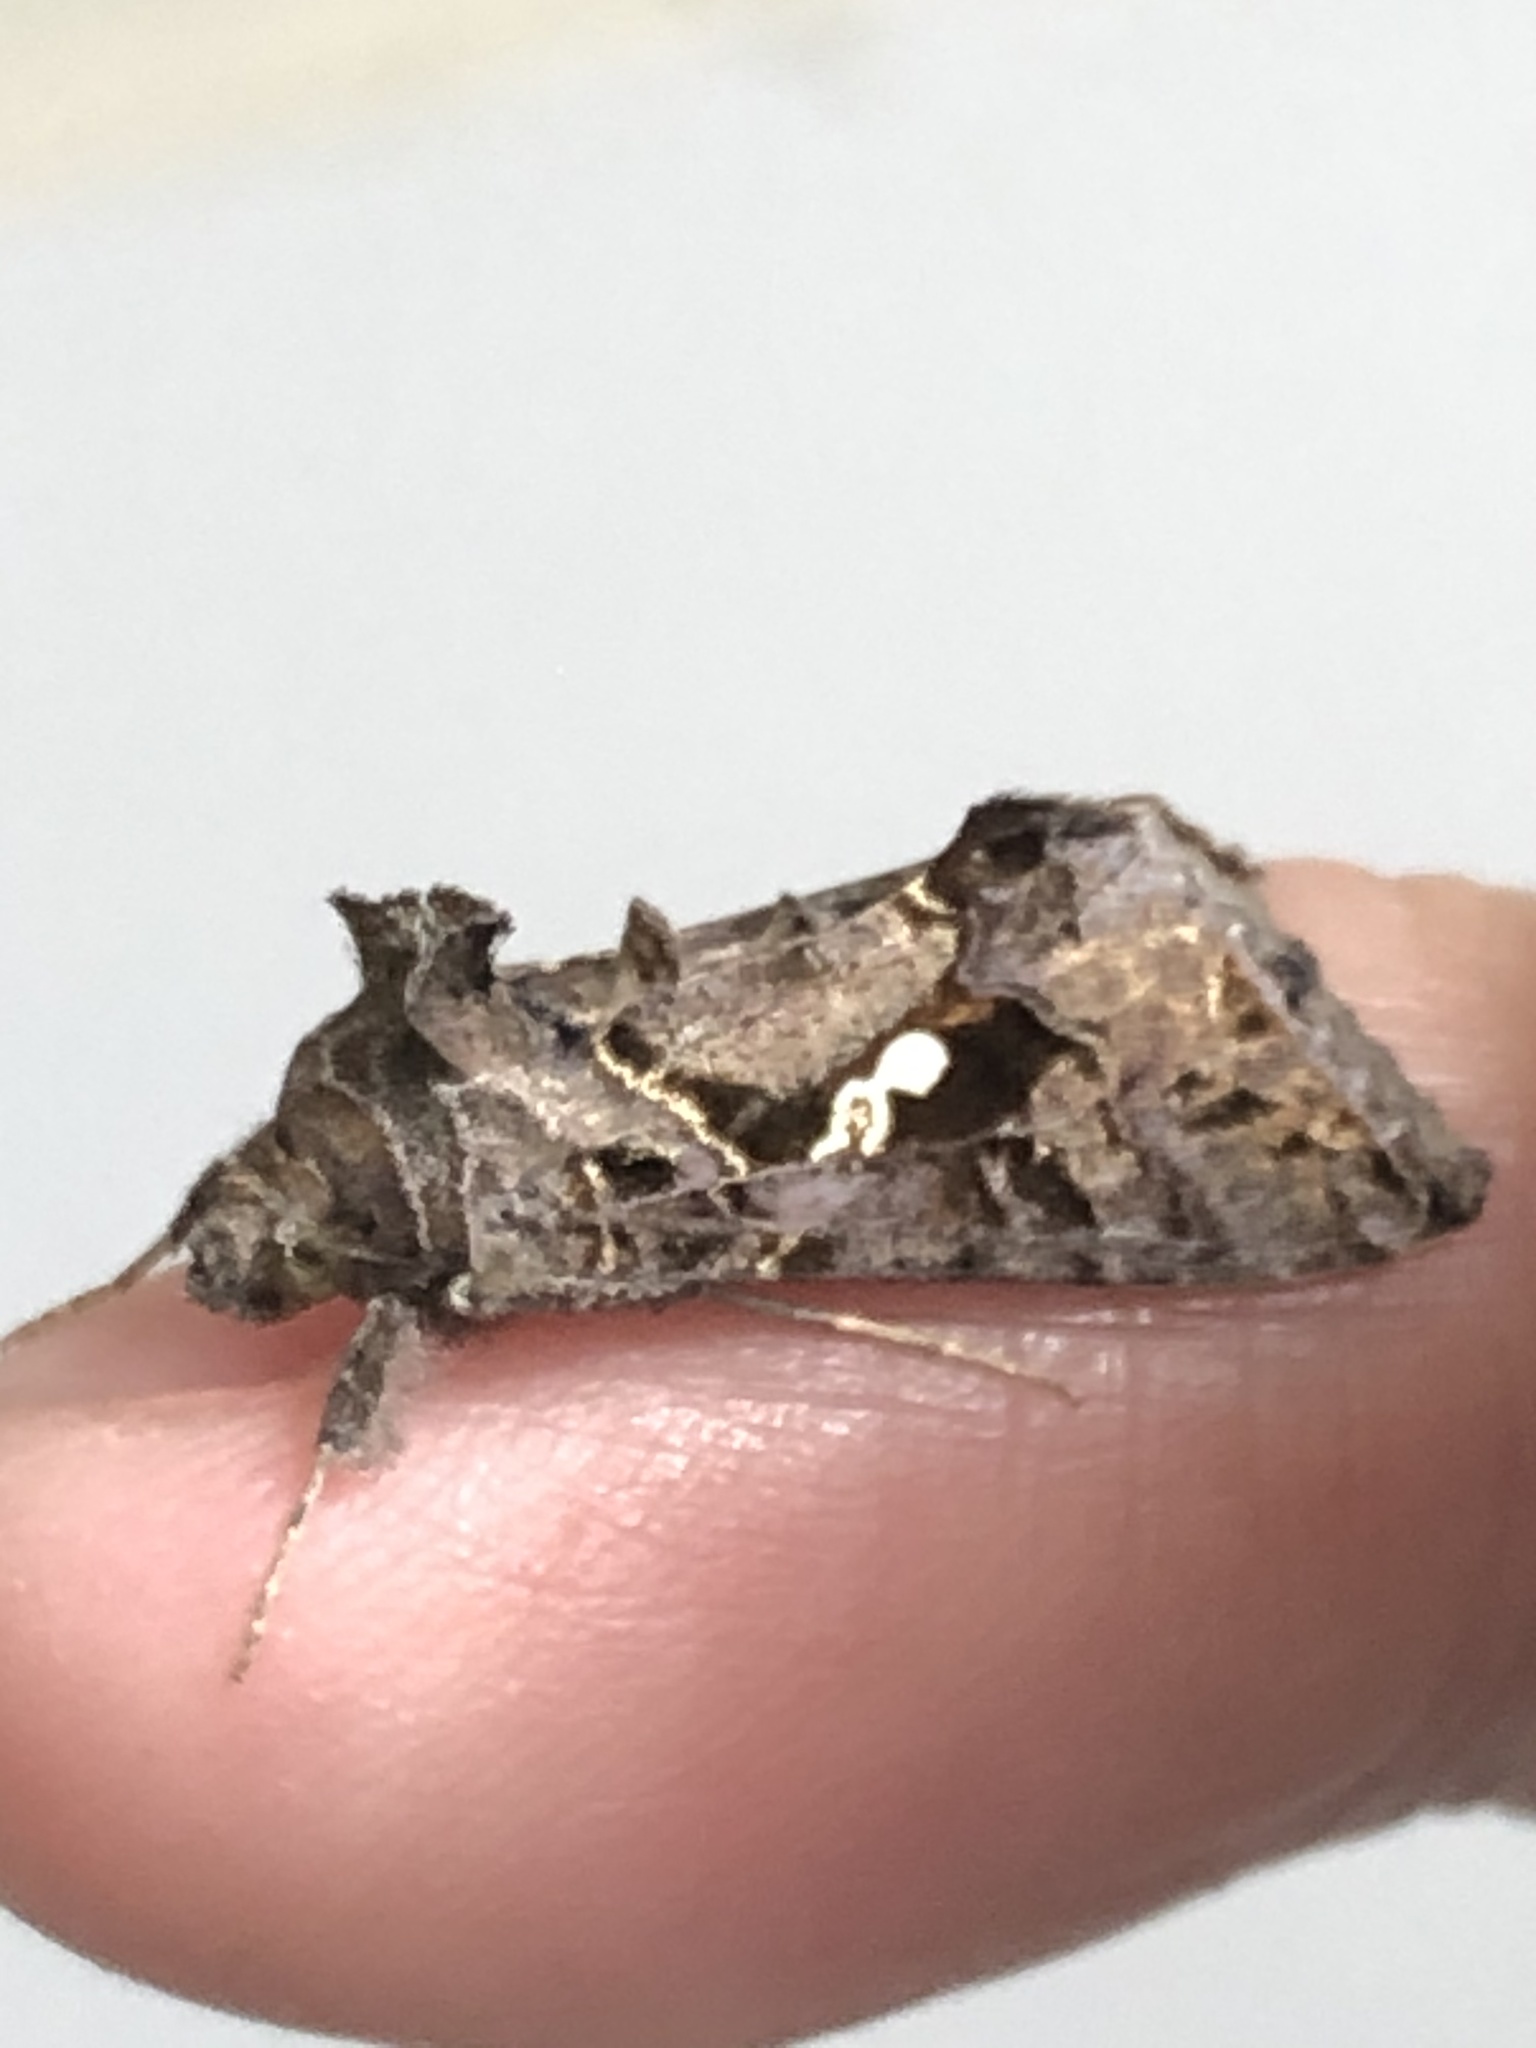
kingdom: Animalia
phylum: Arthropoda
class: Insecta
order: Lepidoptera
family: Noctuidae
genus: Chrysodeixis
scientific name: Chrysodeixis includens
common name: Cutworm moth
